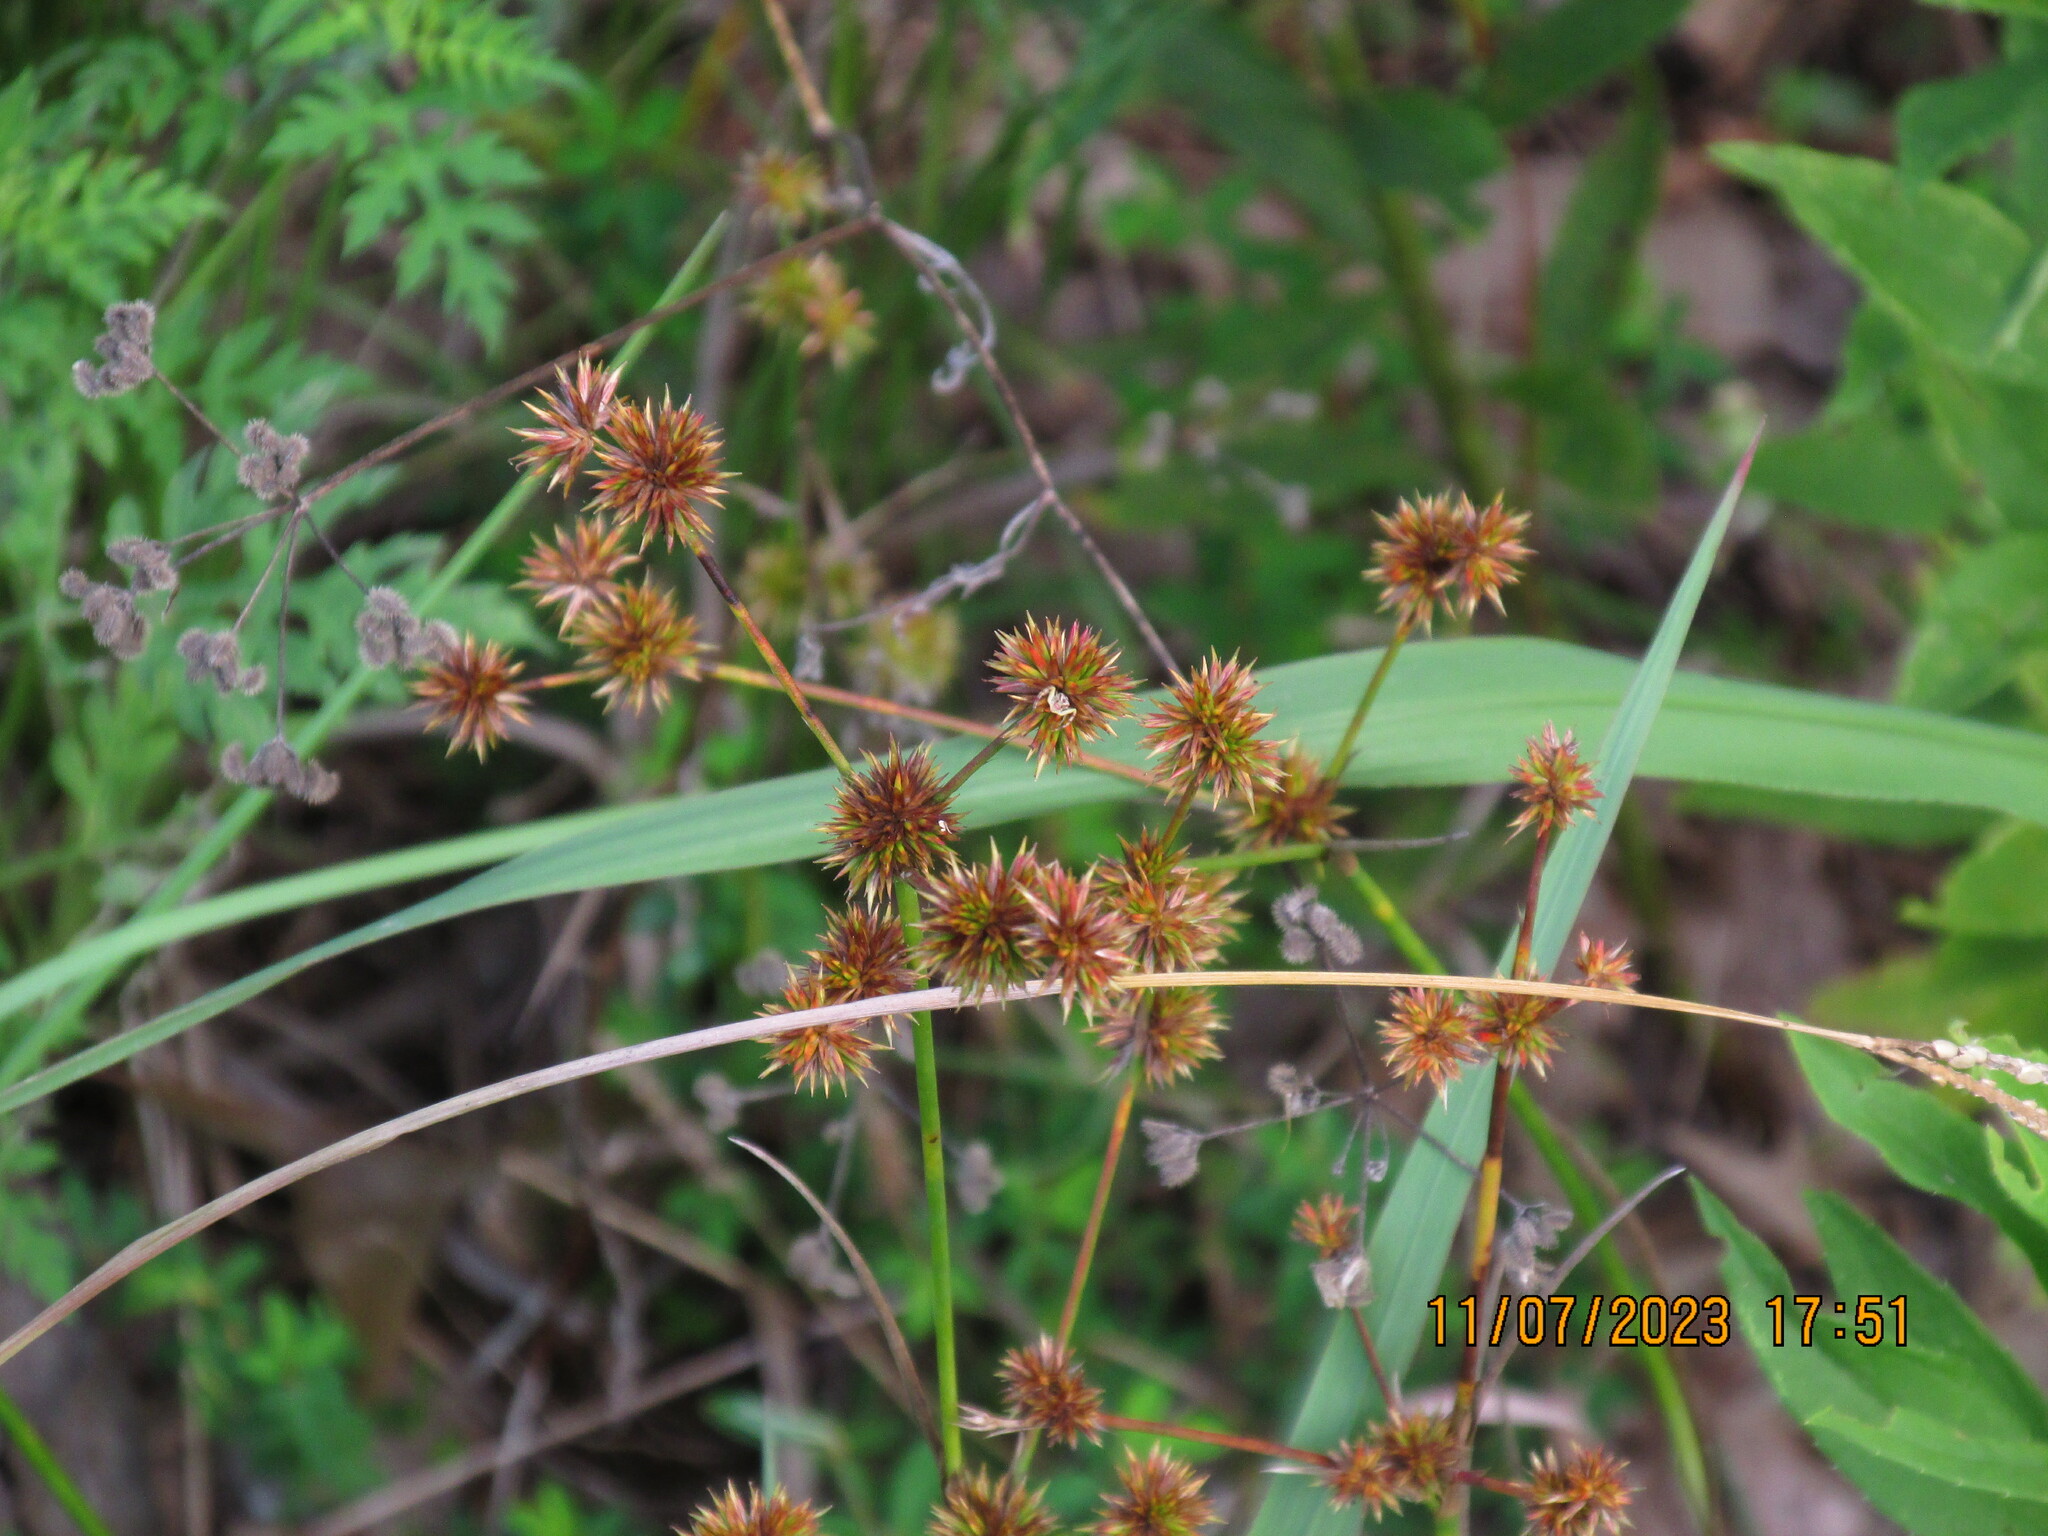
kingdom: Plantae
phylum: Tracheophyta
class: Liliopsida
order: Poales
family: Juncaceae
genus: Juncus
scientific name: Juncus validus
